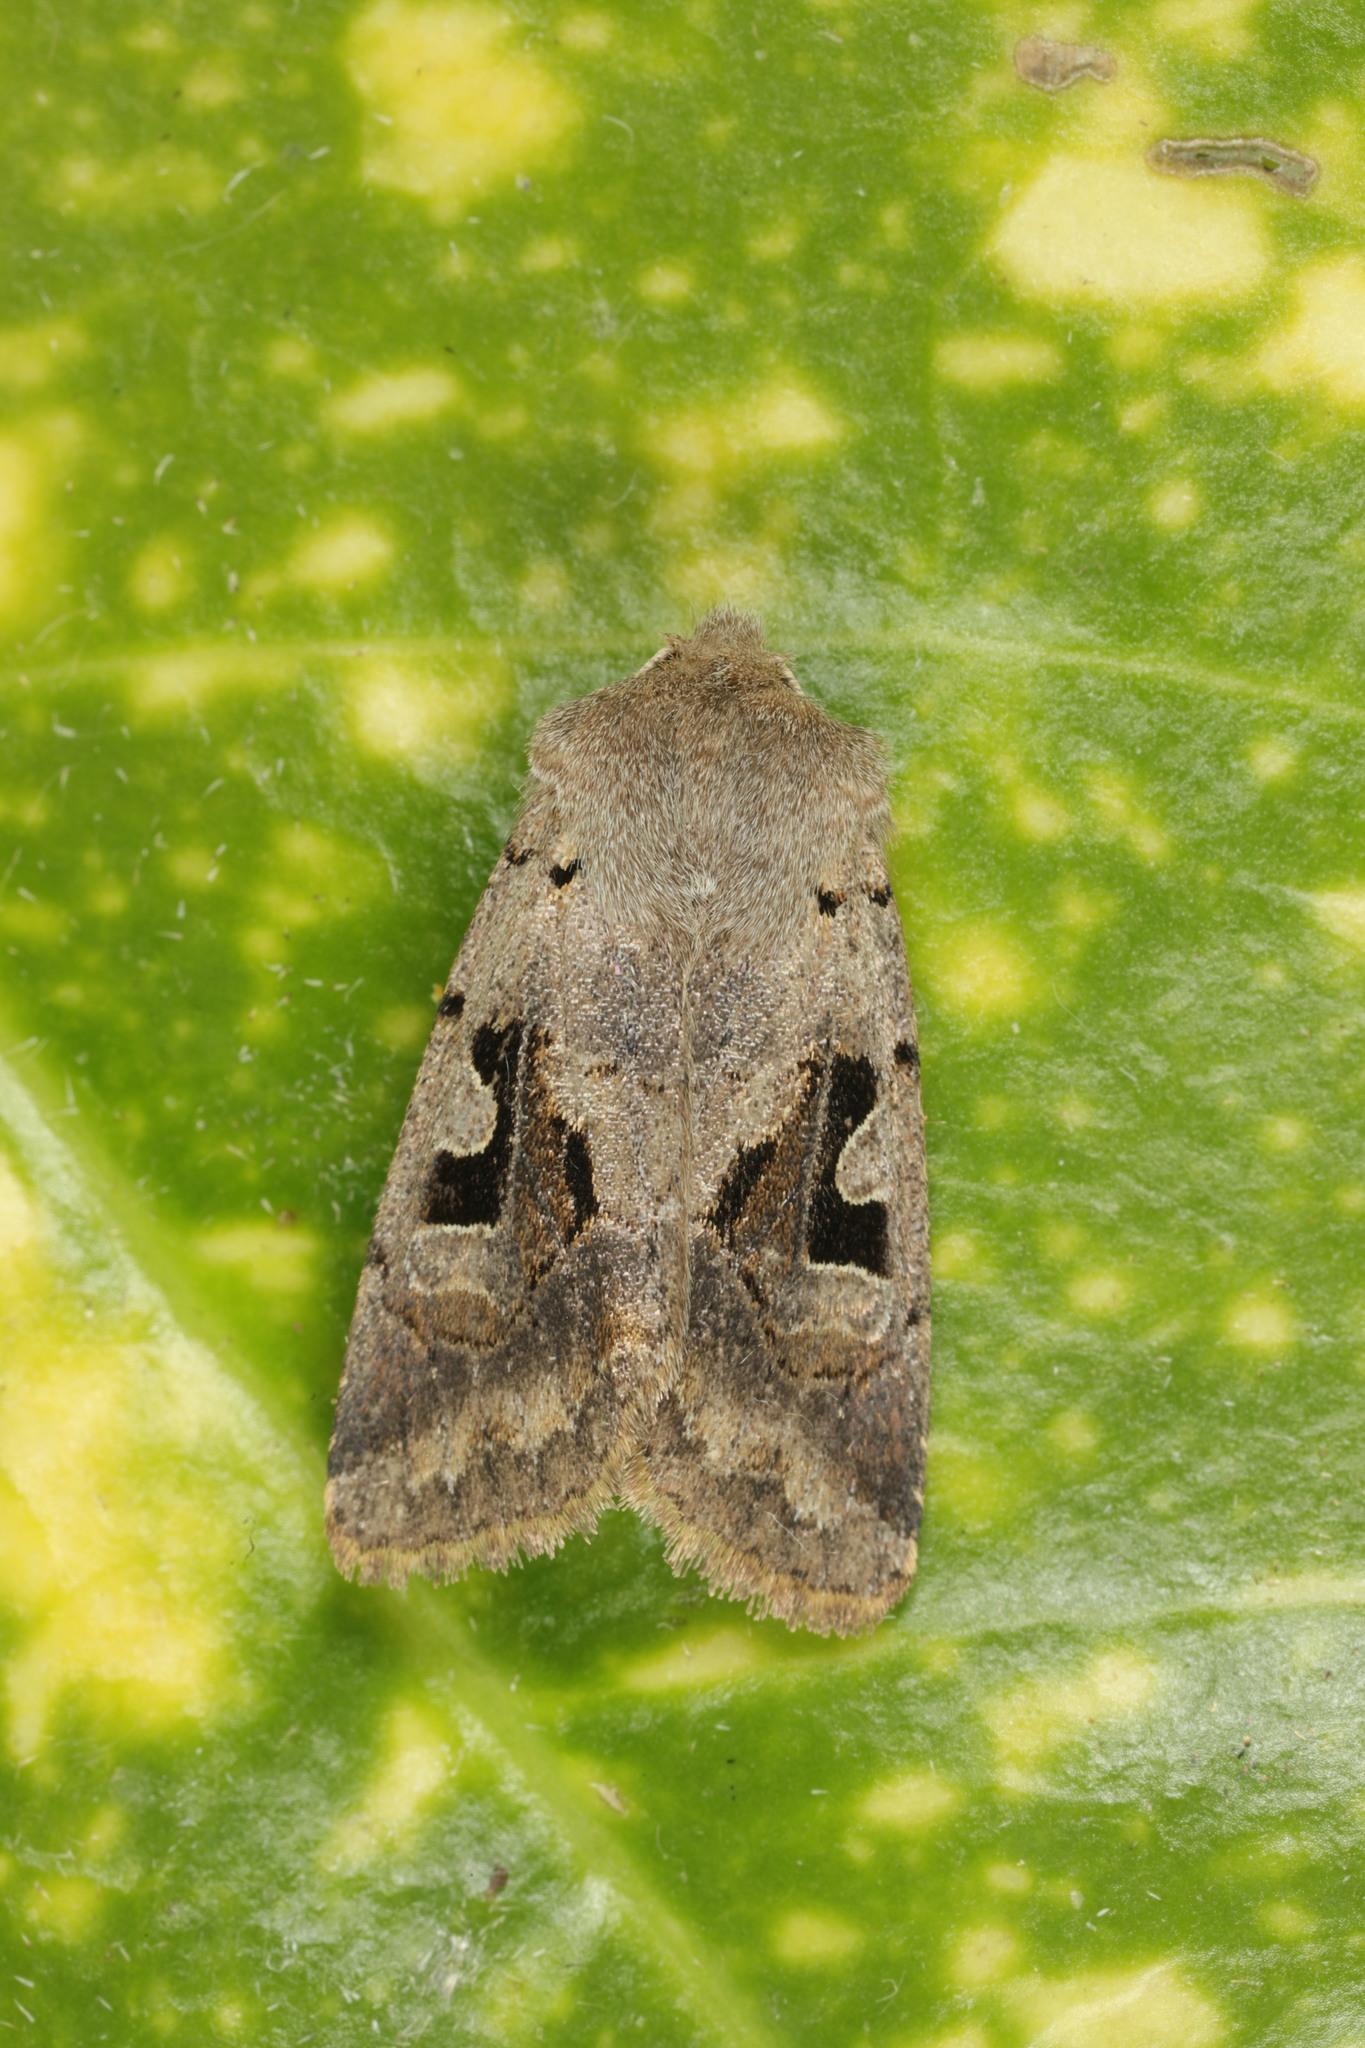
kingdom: Animalia
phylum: Arthropoda
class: Insecta
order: Lepidoptera
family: Noctuidae
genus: Orthosia
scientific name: Orthosia gothica
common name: Hebrew character
